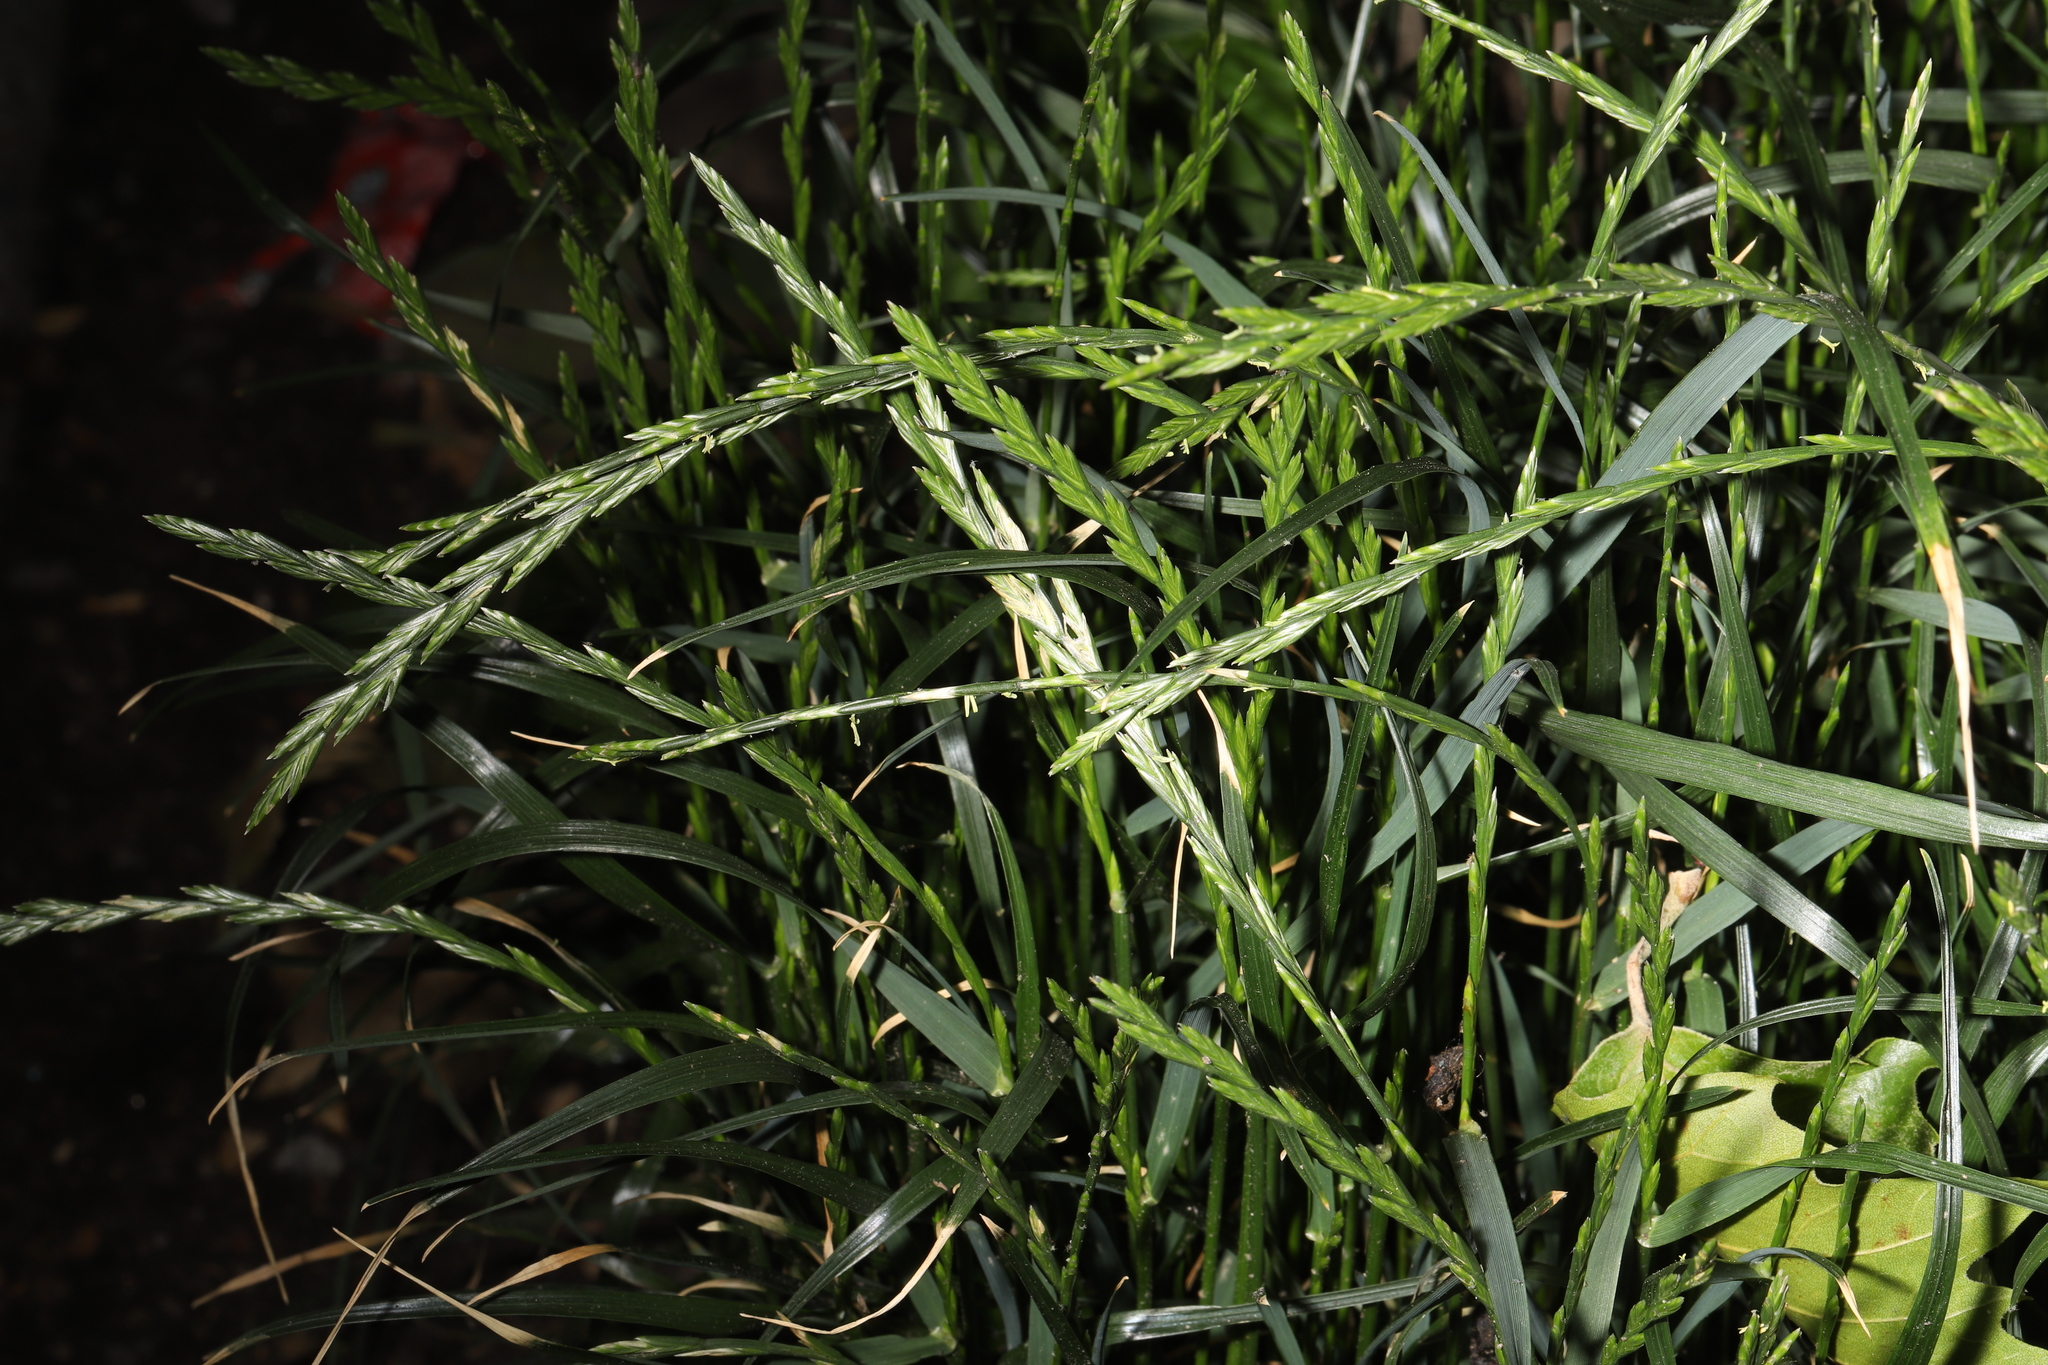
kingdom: Plantae
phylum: Tracheophyta
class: Liliopsida
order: Poales
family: Poaceae
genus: Lolium
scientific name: Lolium perenne
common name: Perennial ryegrass
